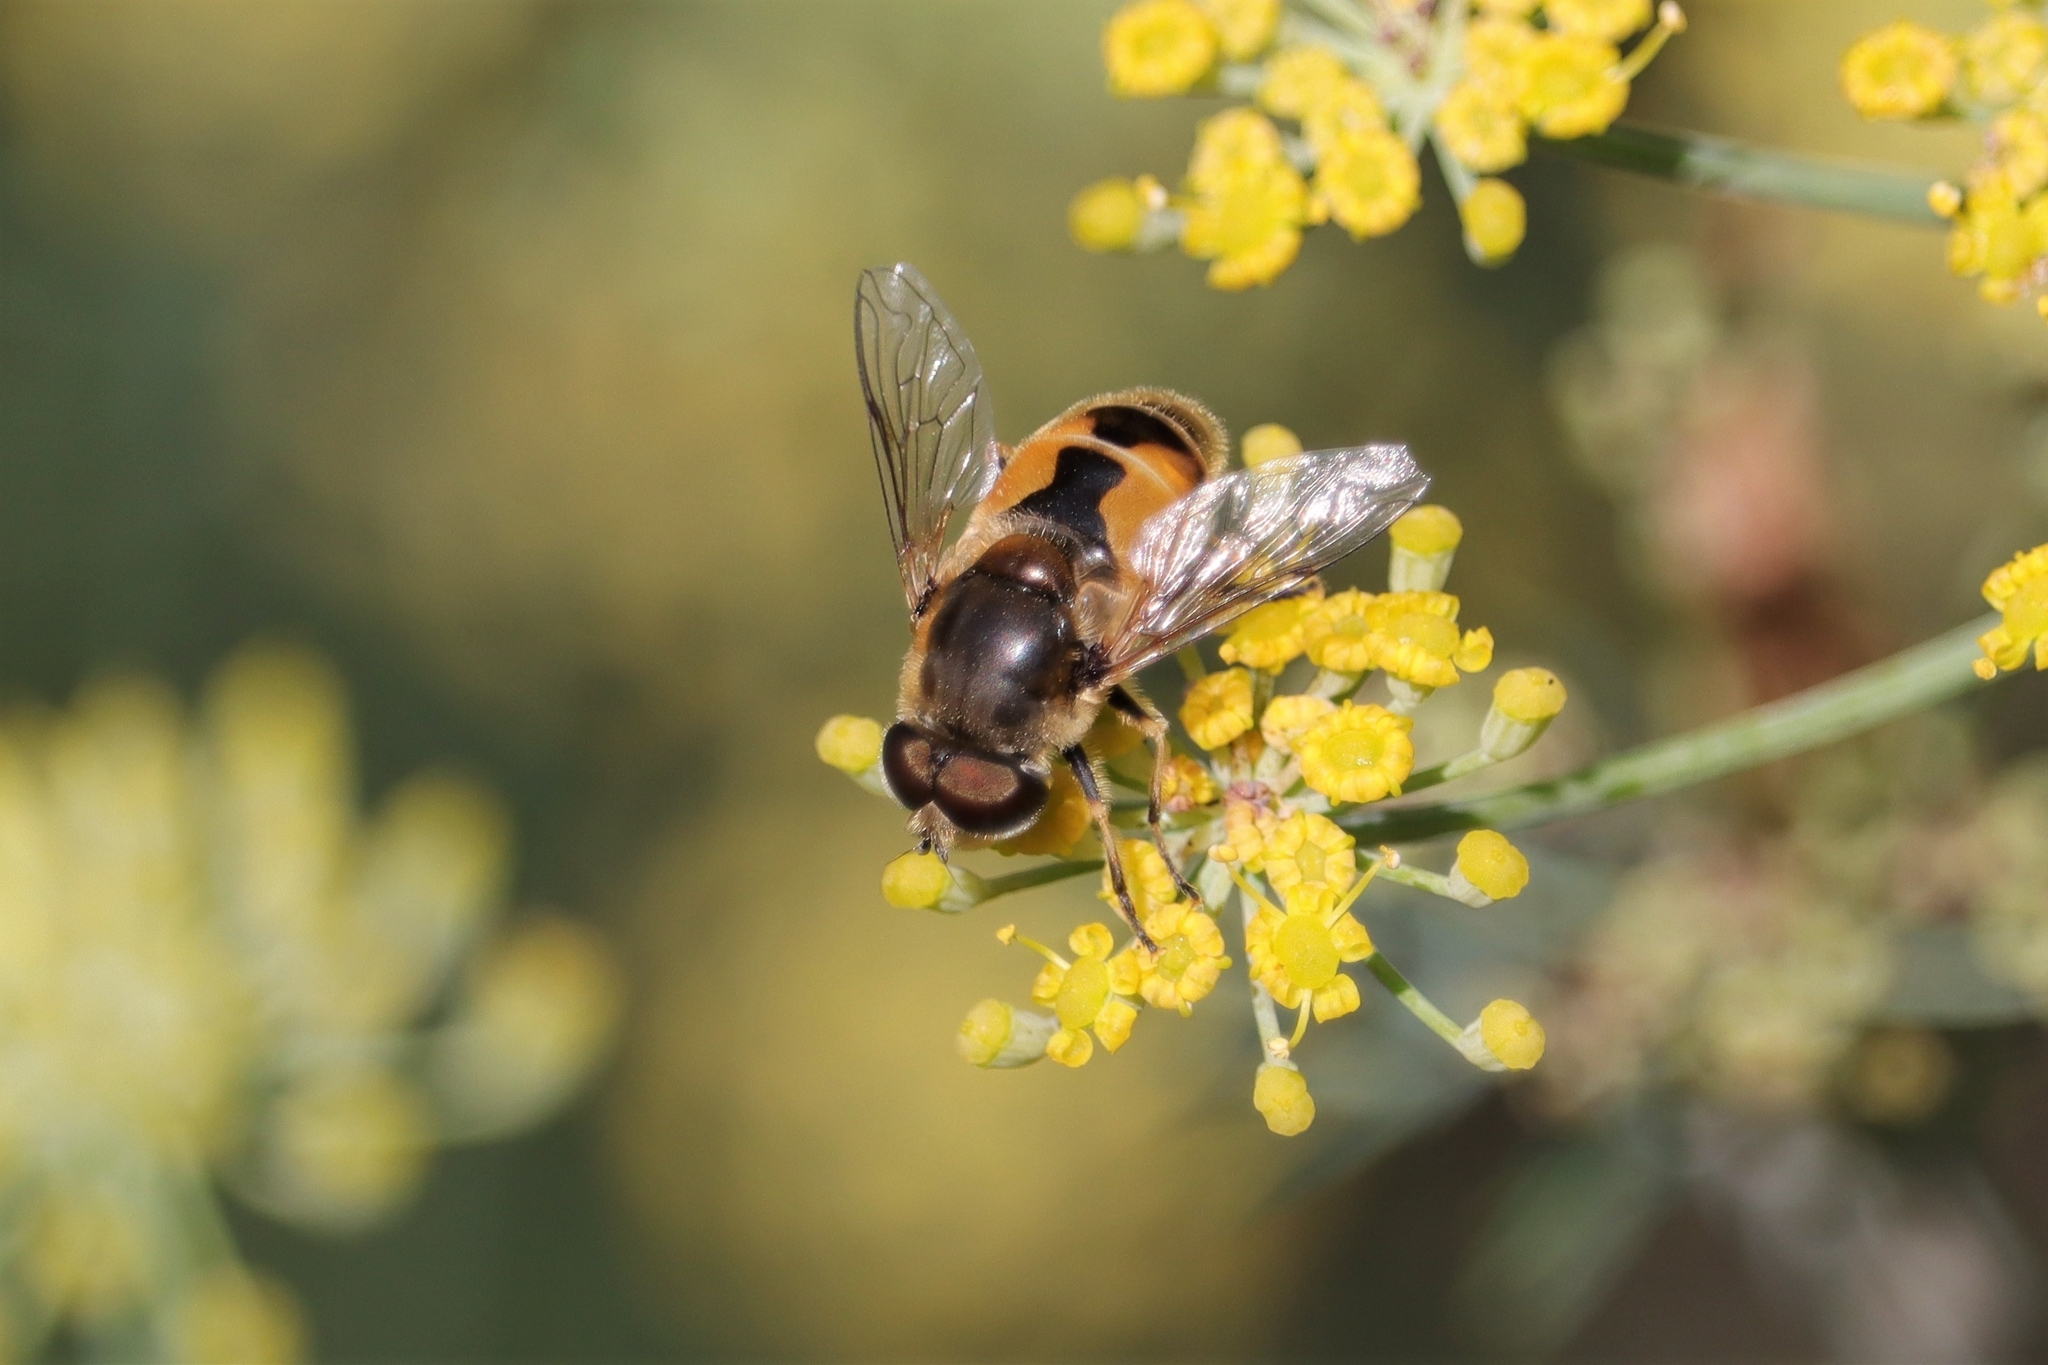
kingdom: Animalia
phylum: Arthropoda
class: Insecta
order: Diptera
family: Syrphidae
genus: Eristalis
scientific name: Eristalis arbustorum
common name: Hover fly
